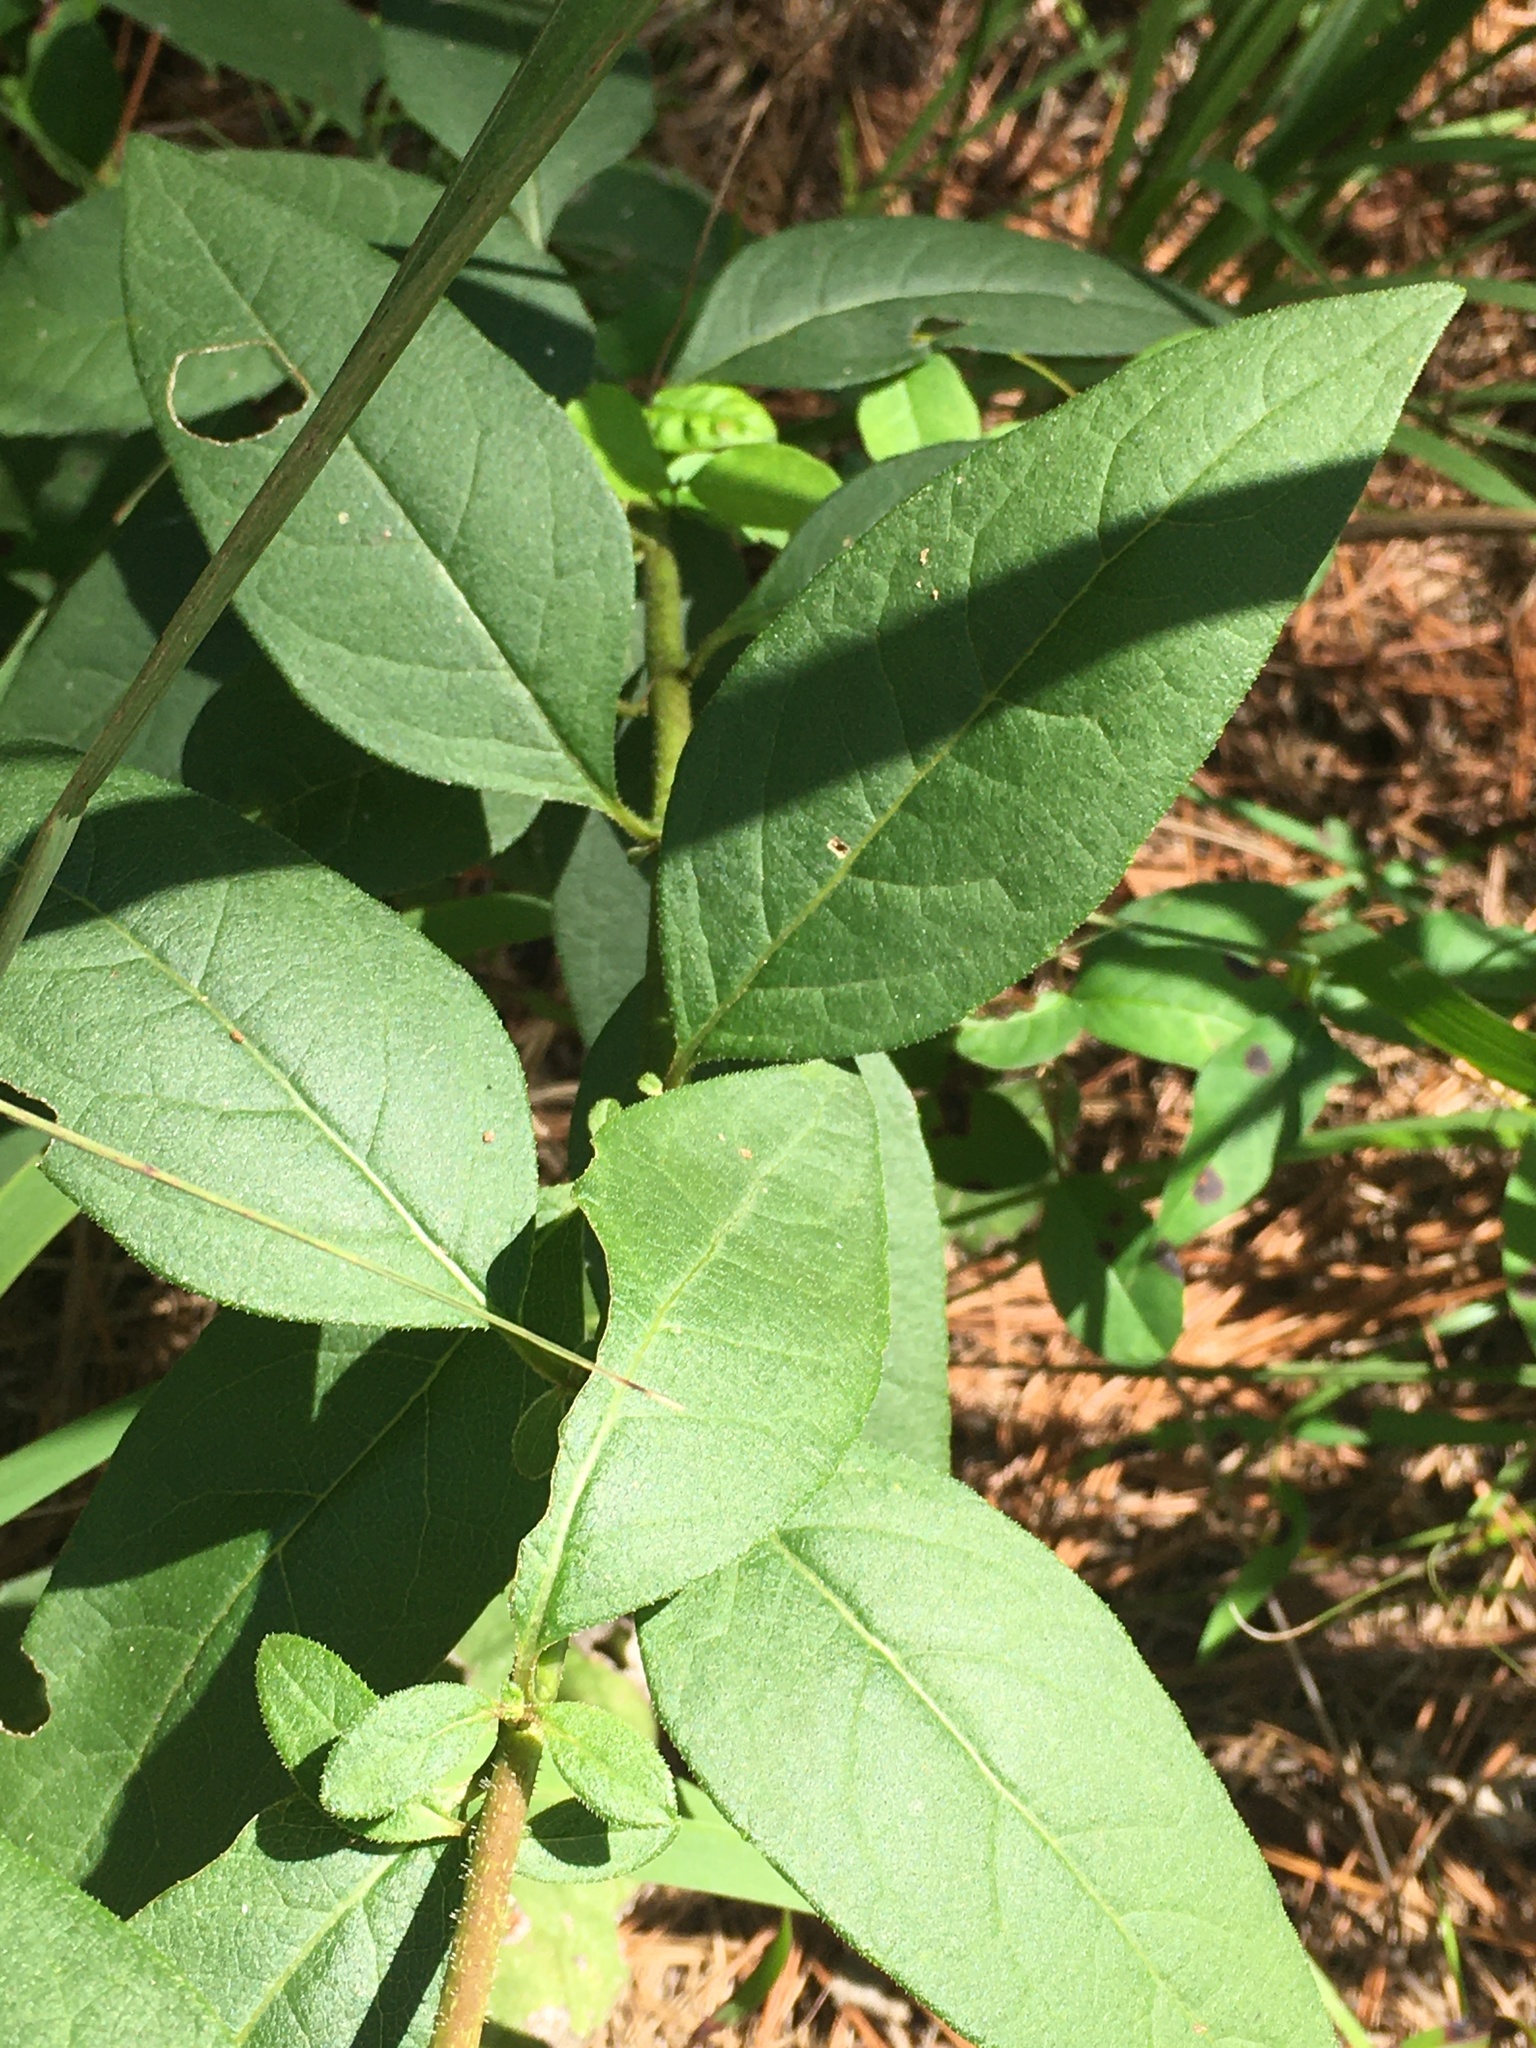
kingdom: Plantae
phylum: Tracheophyta
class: Magnoliopsida
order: Asterales
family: Asteraceae
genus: Silphium
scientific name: Silphium asteriscus
